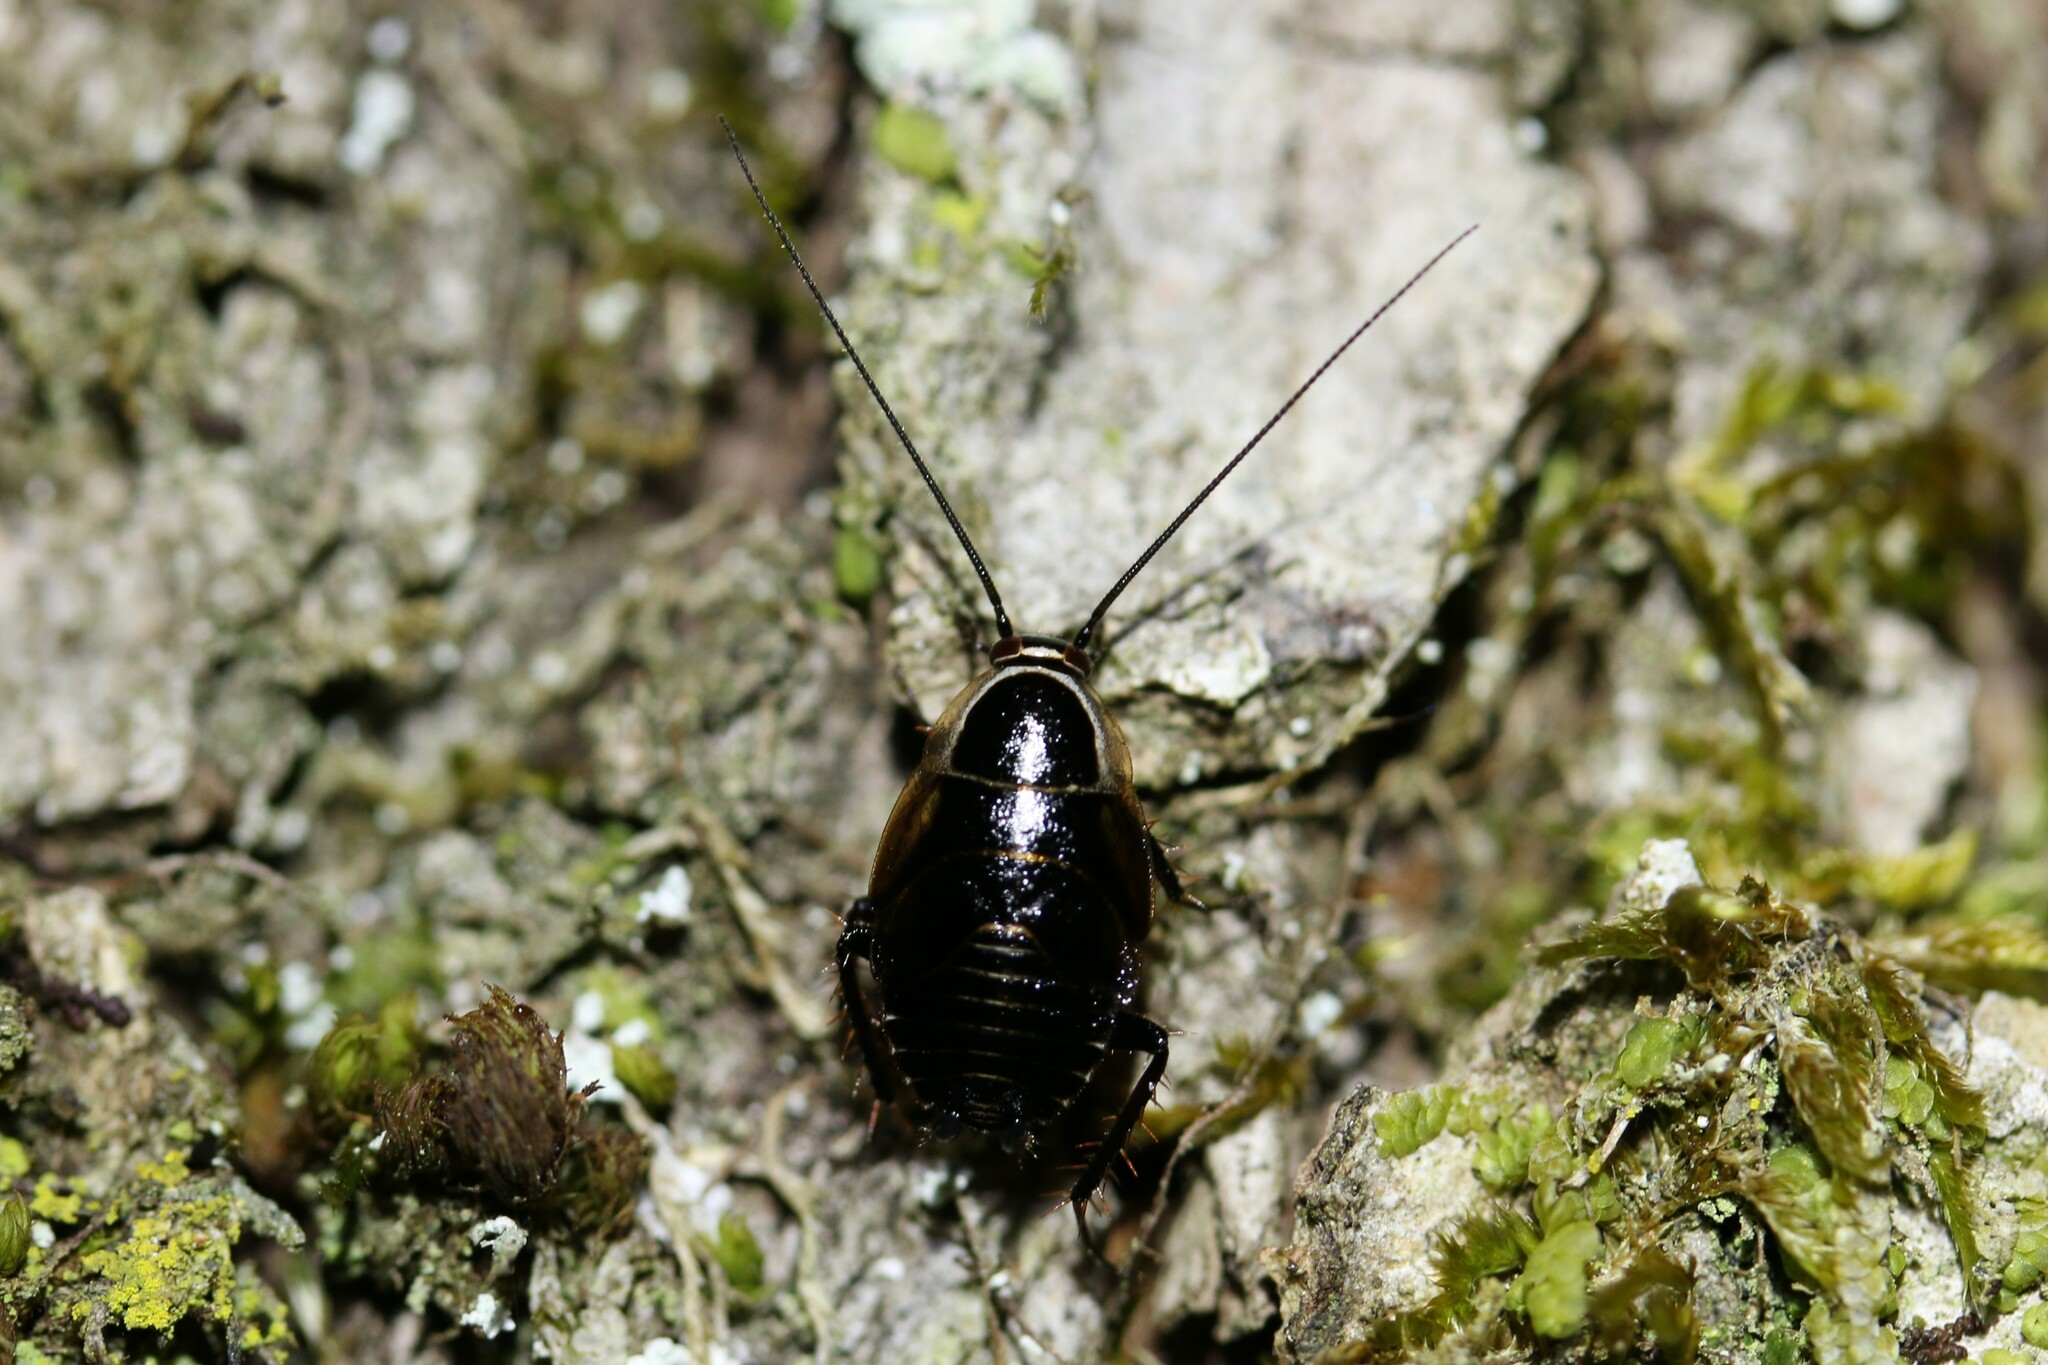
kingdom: Animalia
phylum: Arthropoda
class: Insecta
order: Blattodea
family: Ectobiidae
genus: Ectobius
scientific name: Ectobius sylvestris
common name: Forest cockroach
